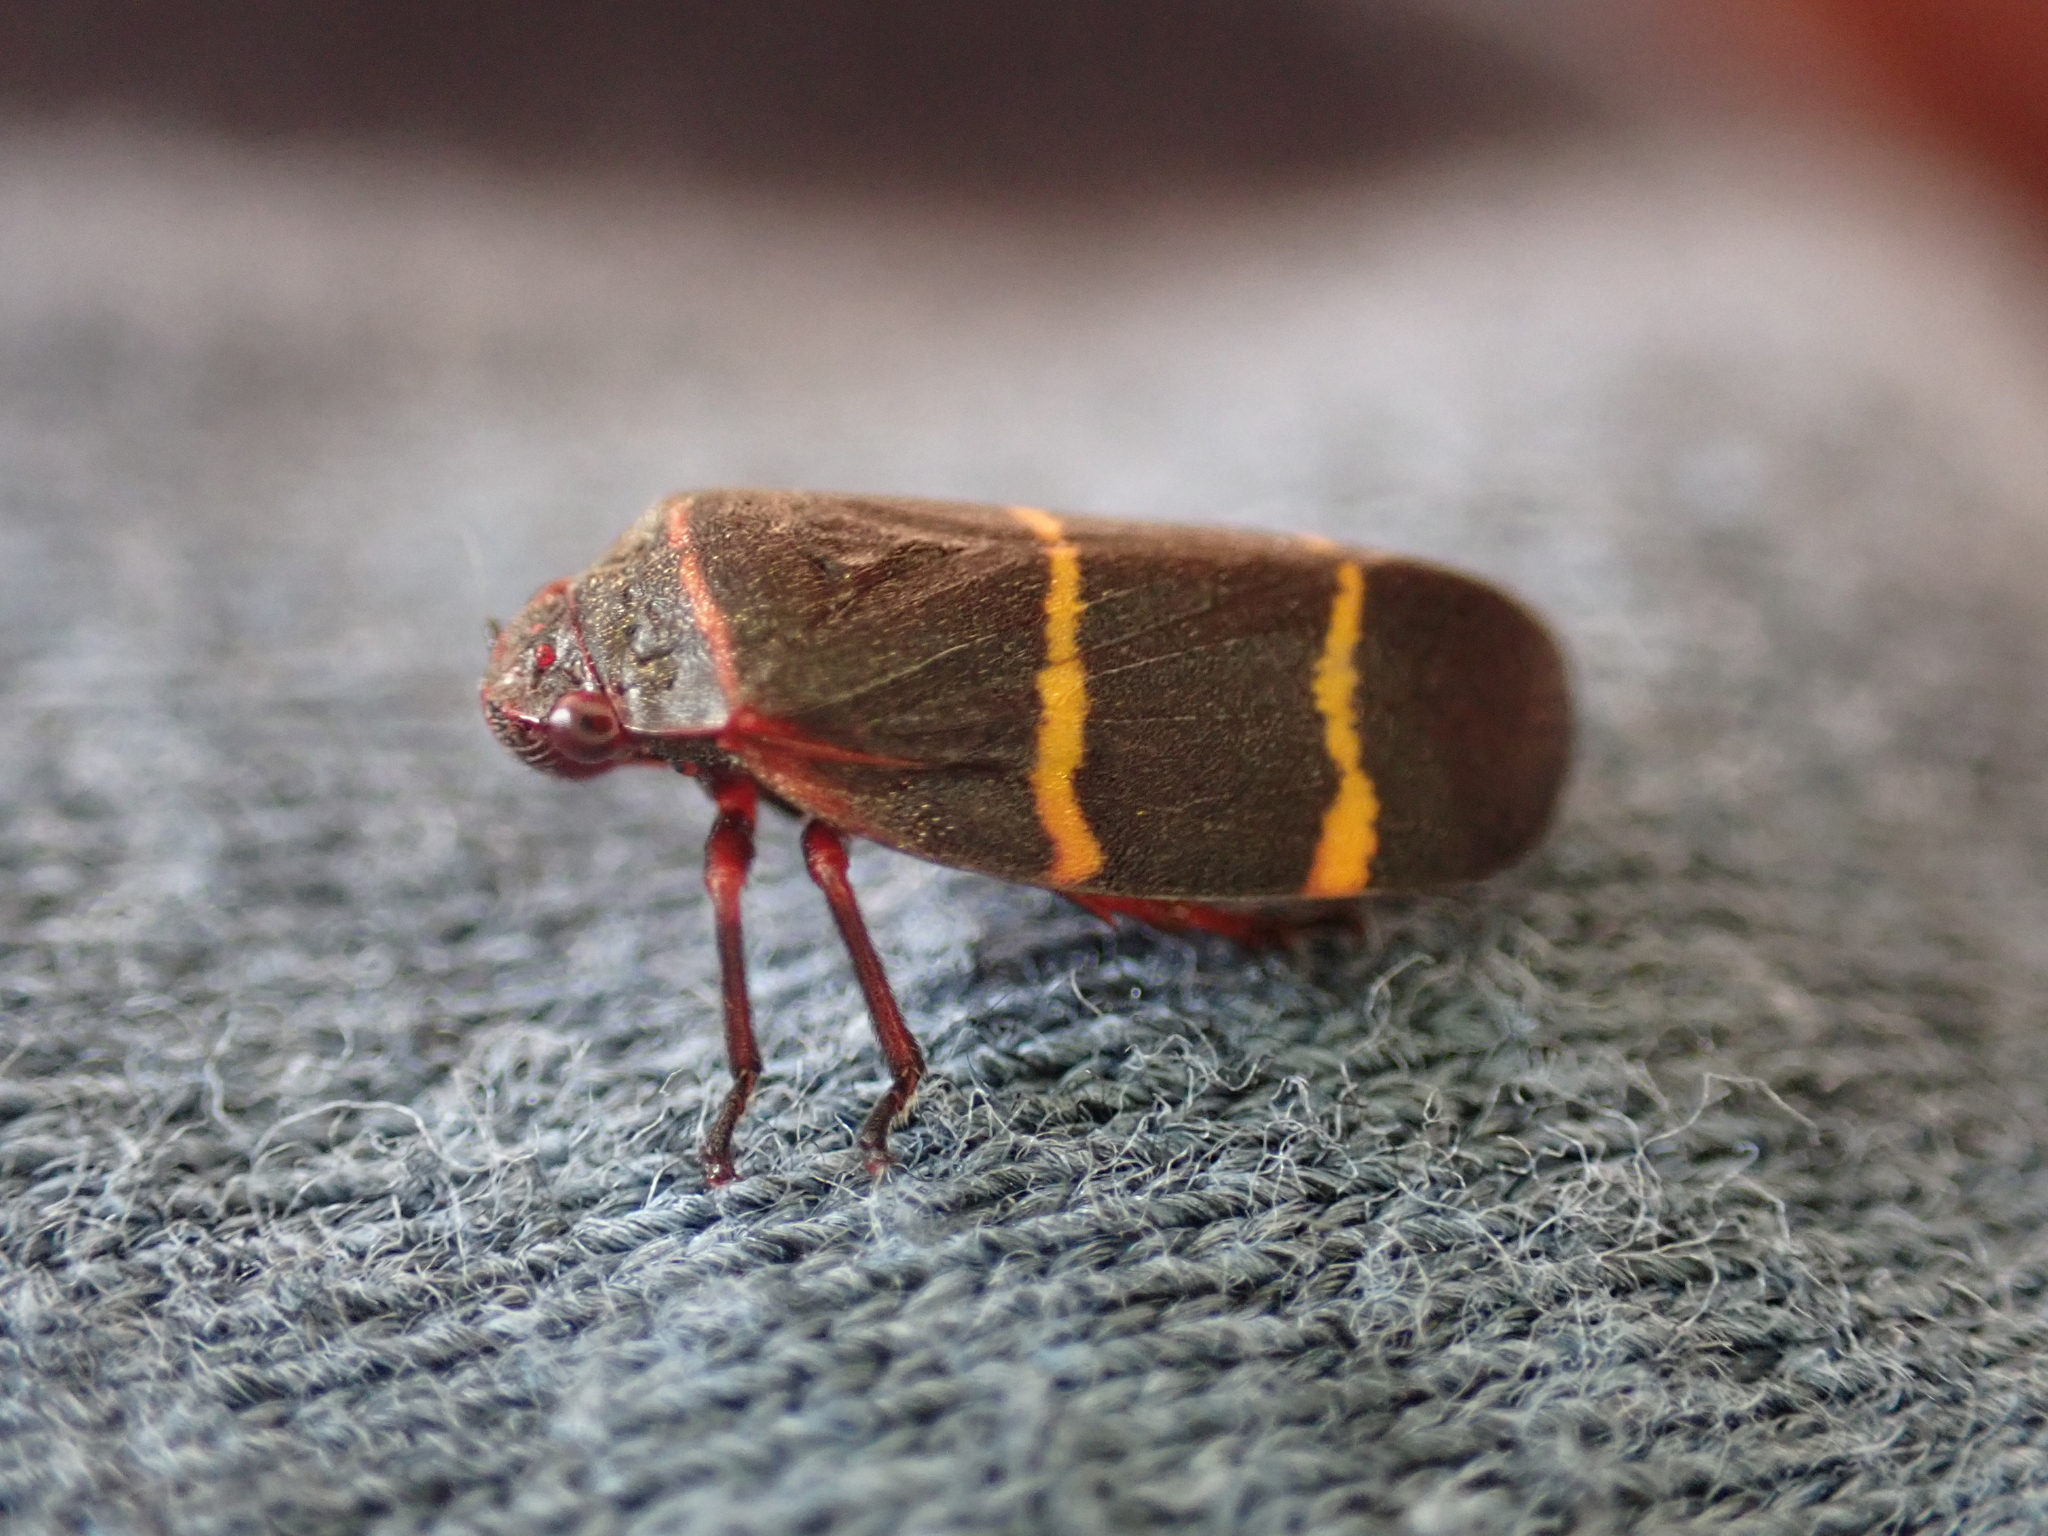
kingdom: Animalia
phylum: Arthropoda
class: Insecta
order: Hemiptera
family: Cercopidae
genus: Prosapia
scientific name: Prosapia bicincta
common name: Twolined spittlebug
